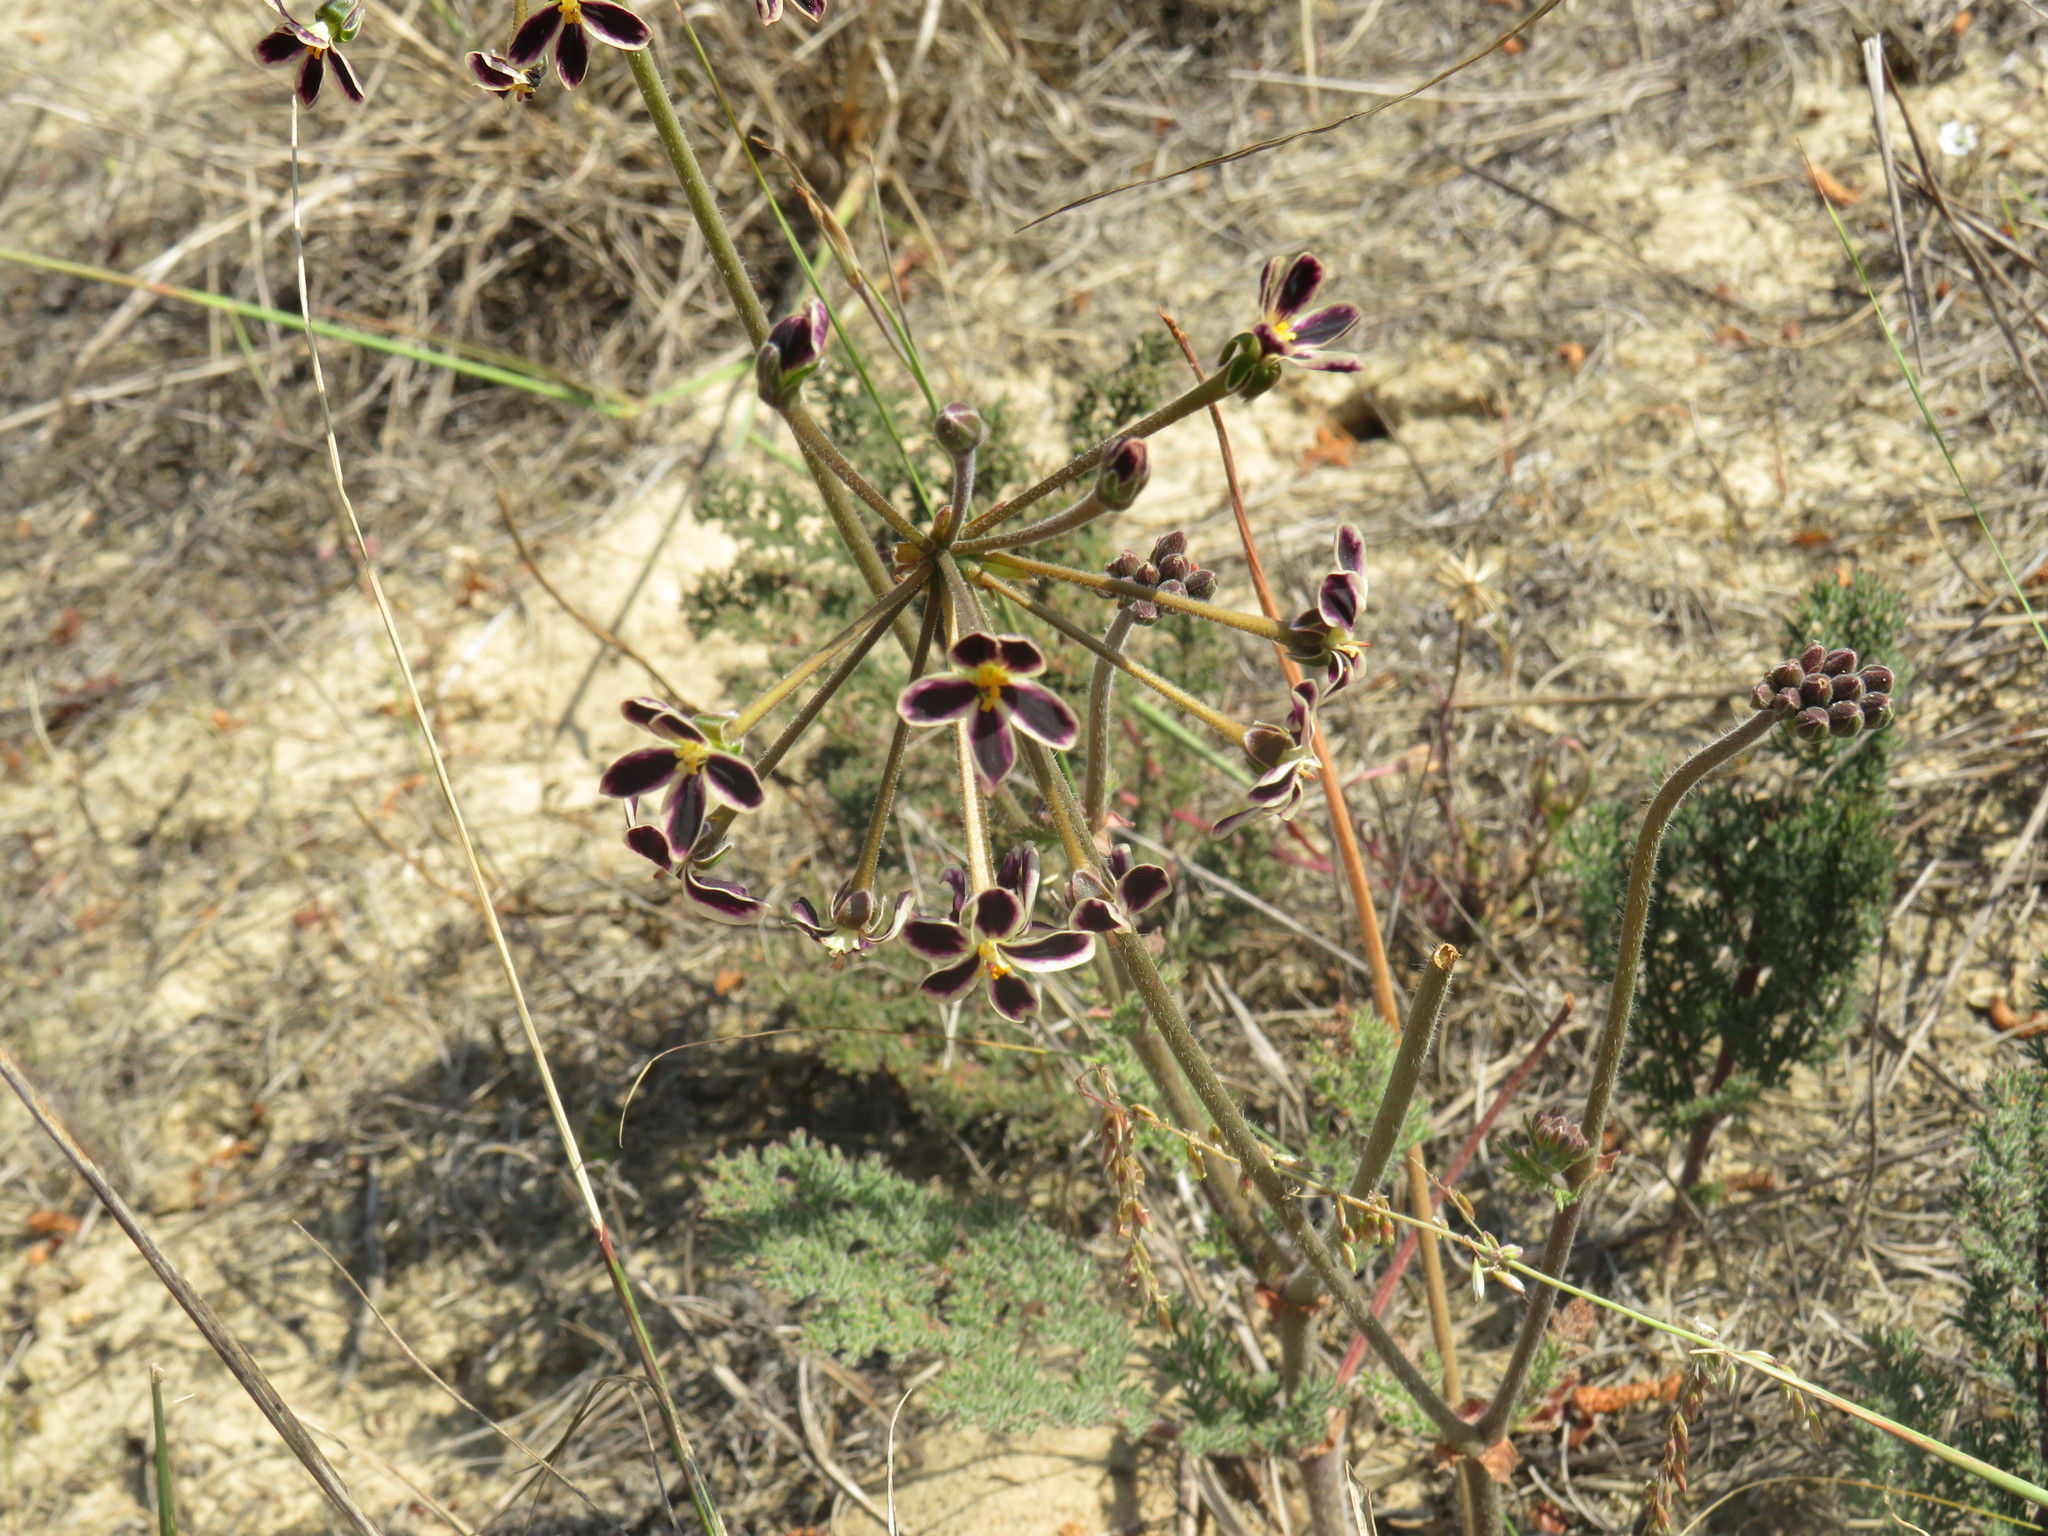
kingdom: Plantae
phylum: Tracheophyta
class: Magnoliopsida
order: Geraniales
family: Geraniaceae
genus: Pelargonium
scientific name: Pelargonium triste
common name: Night-scent pelargonium
